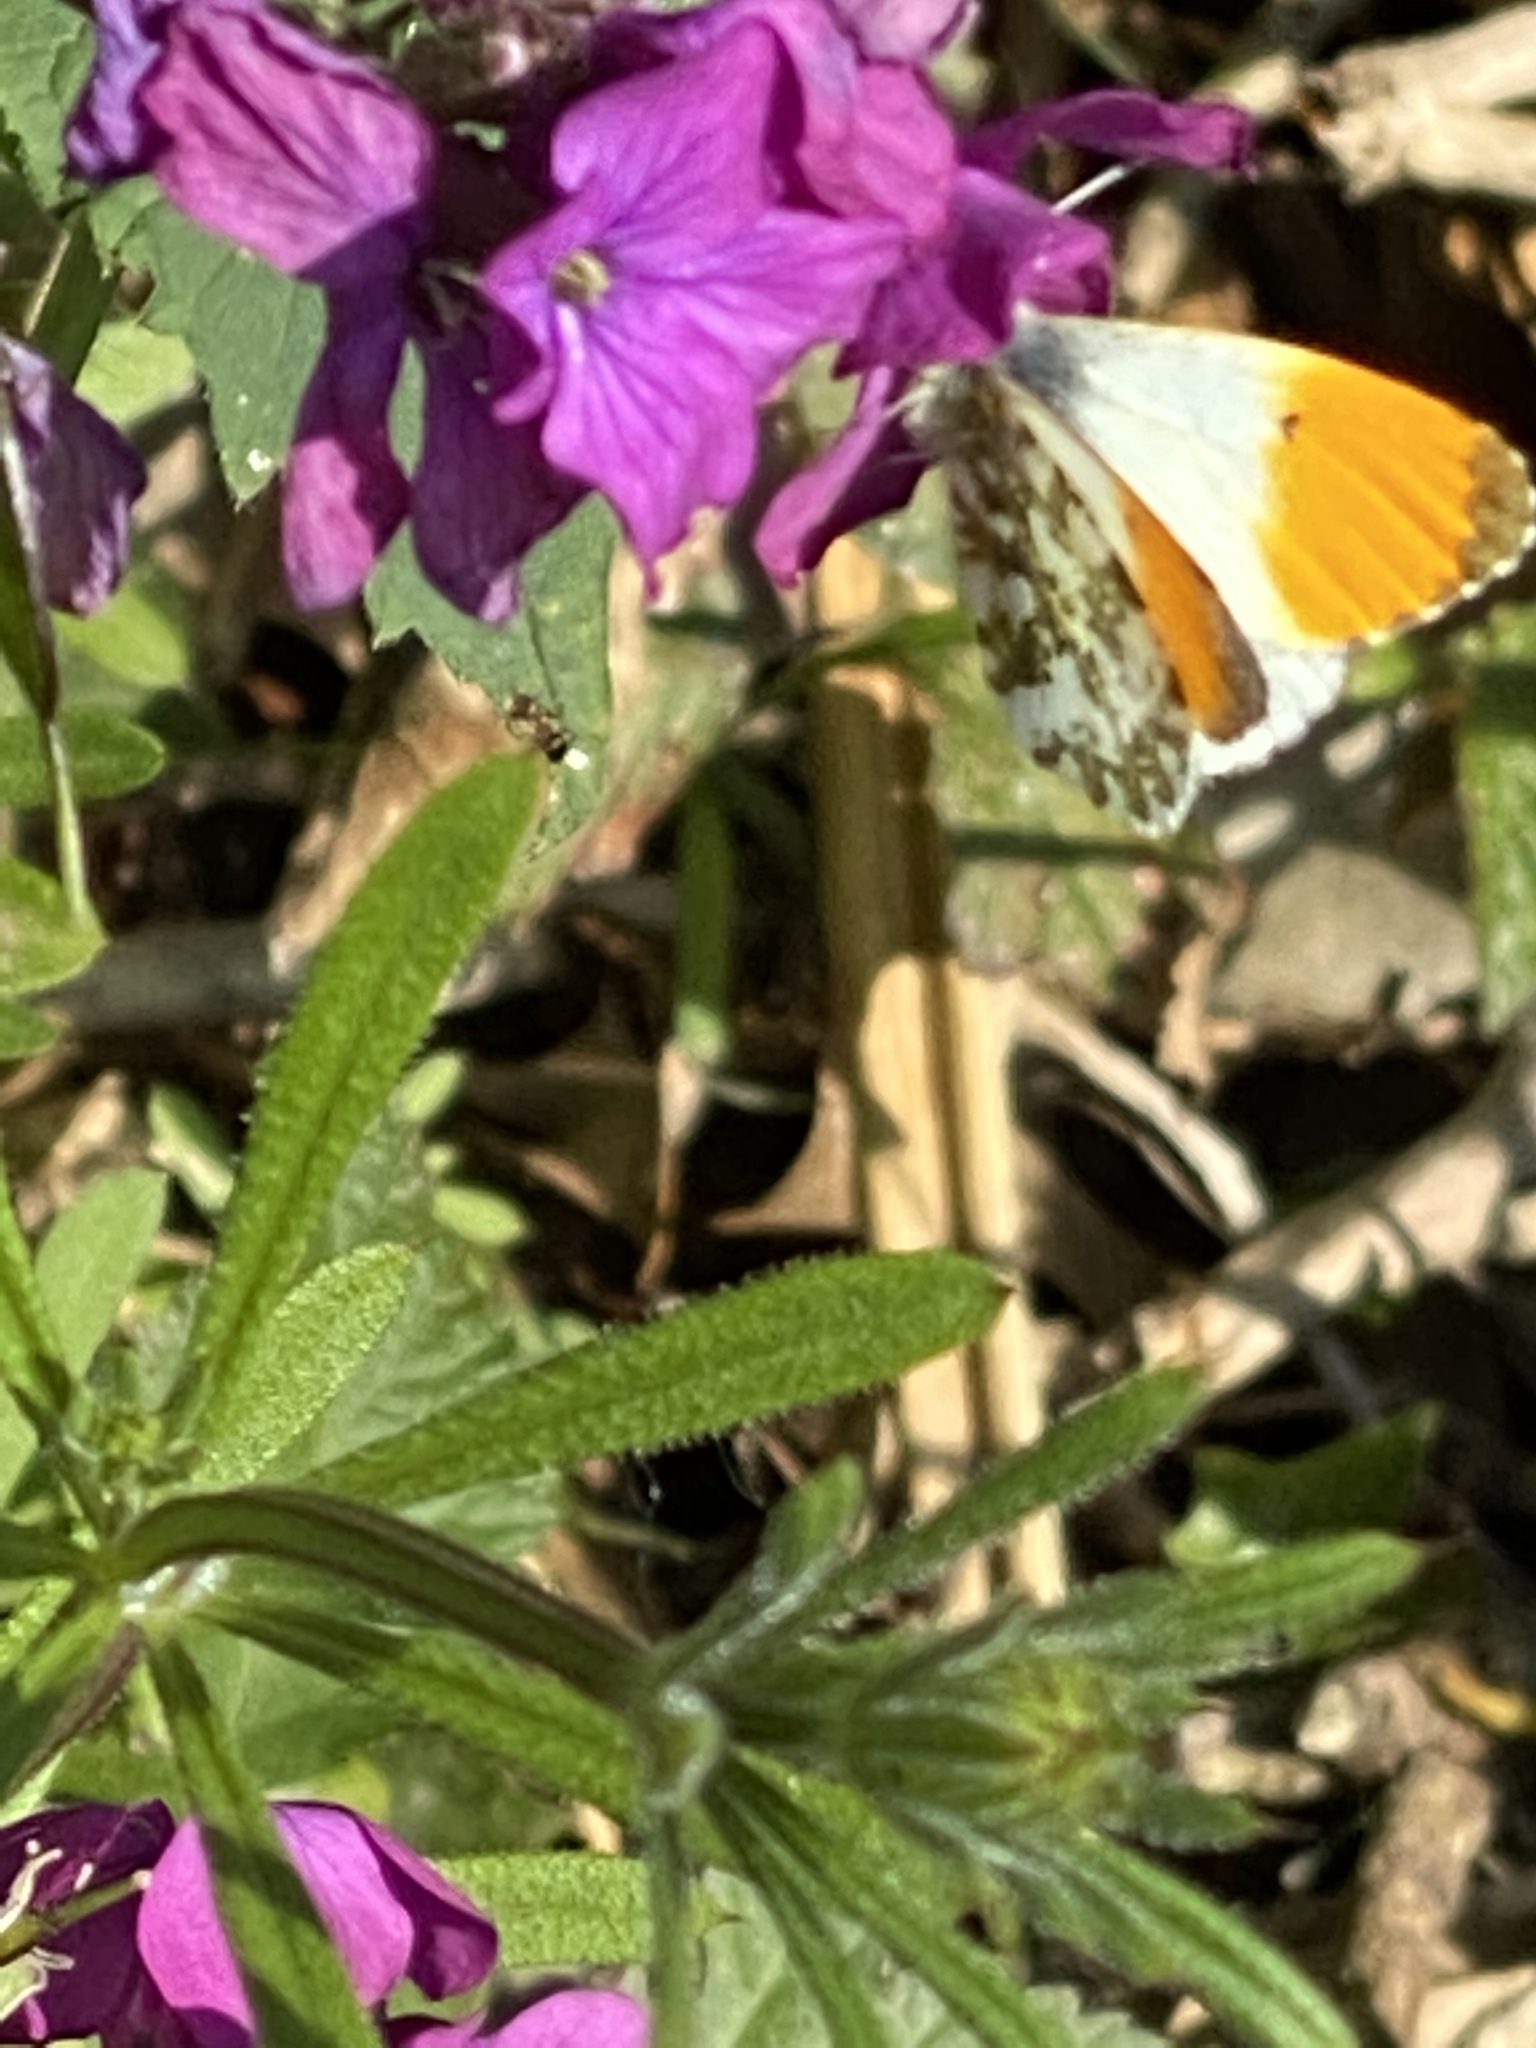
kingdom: Animalia
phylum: Arthropoda
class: Insecta
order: Lepidoptera
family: Pieridae
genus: Anthocharis
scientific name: Anthocharis cardamines
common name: Orange-tip
